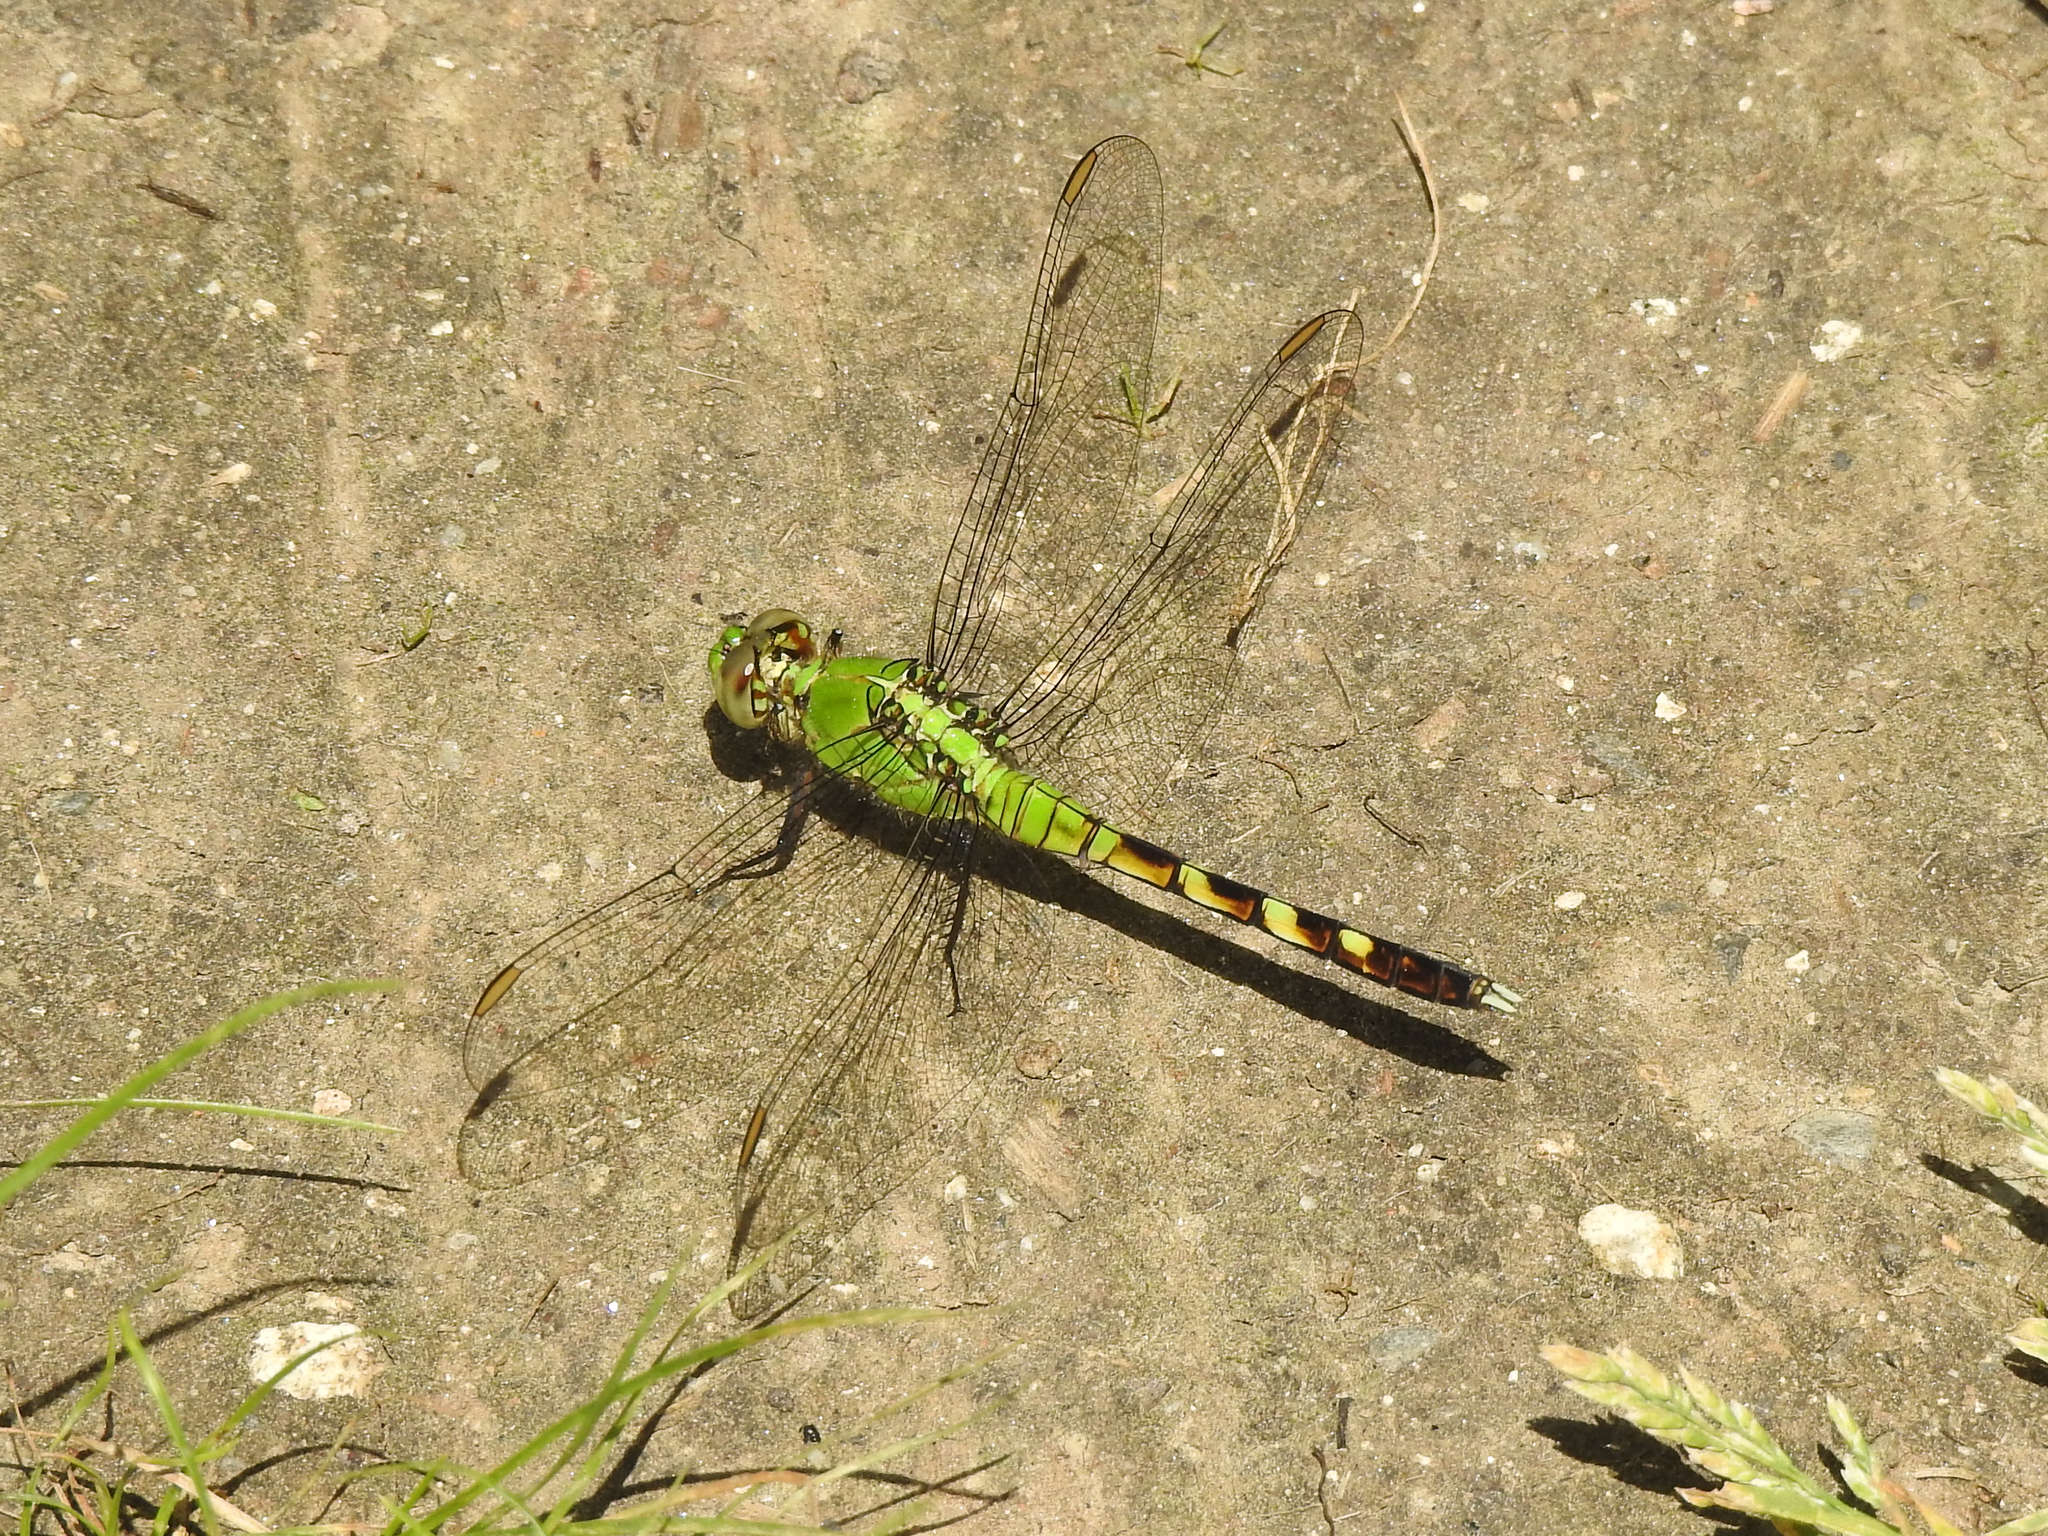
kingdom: Animalia
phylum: Arthropoda
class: Insecta
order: Odonata
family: Libellulidae
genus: Erythemis
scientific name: Erythemis simplicicollis
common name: Eastern pondhawk
